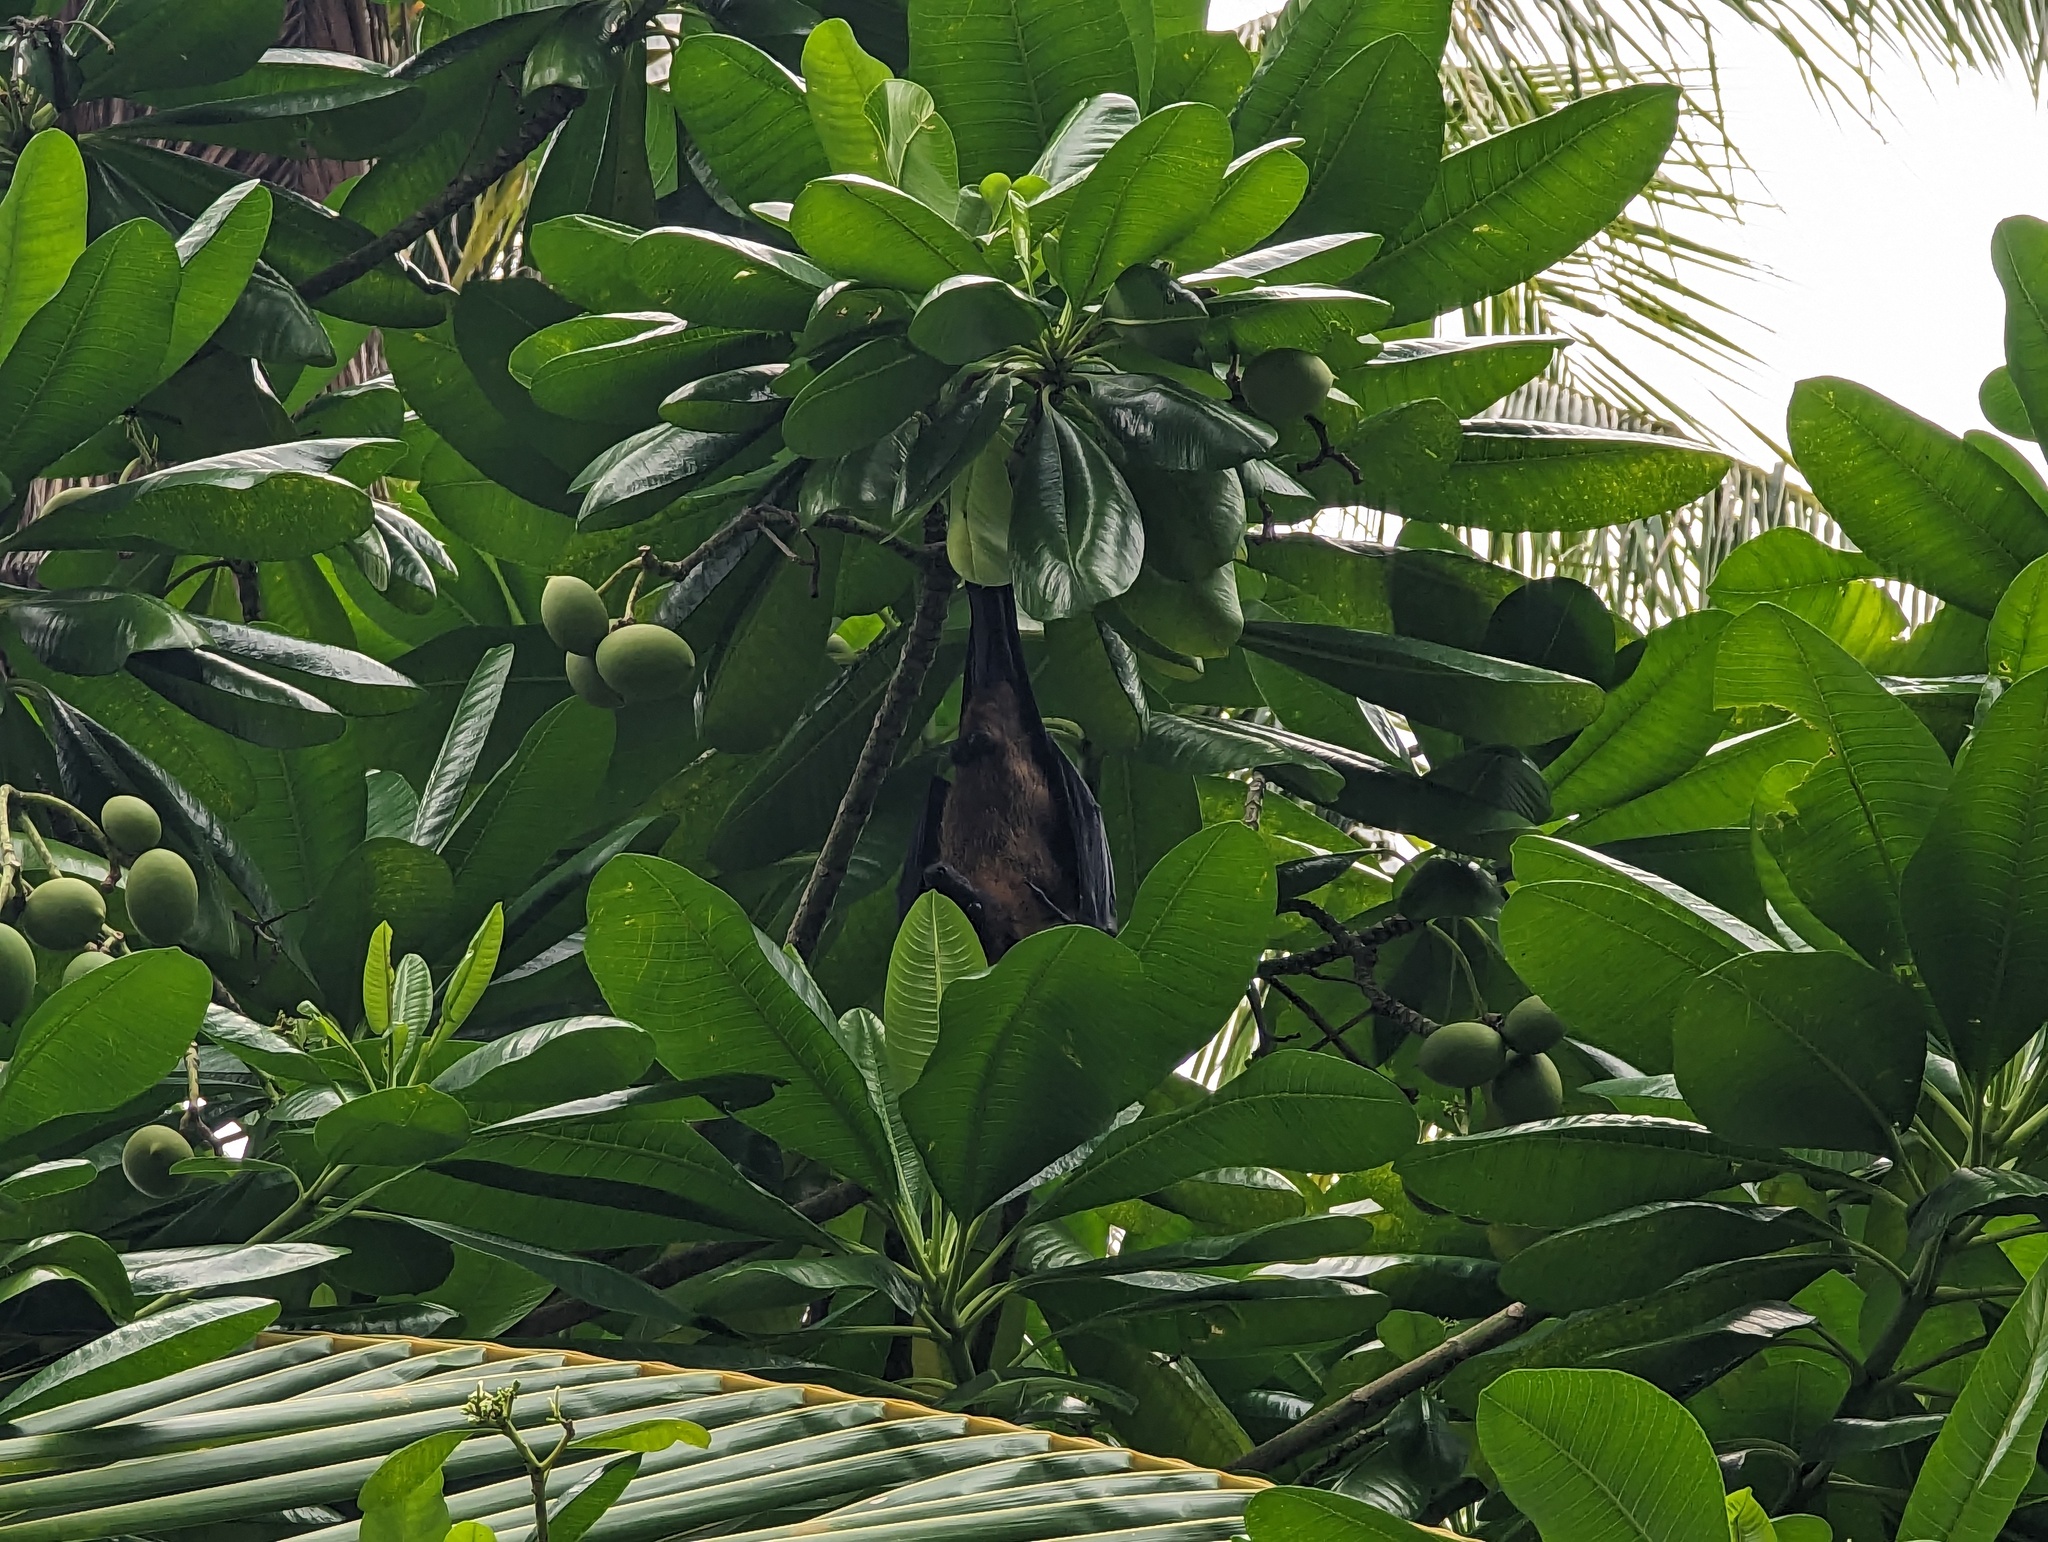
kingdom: Animalia
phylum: Chordata
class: Mammalia
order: Chiroptera
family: Pteropodidae
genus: Pteropus
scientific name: Pteropus vampyrus
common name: Large flying fox
